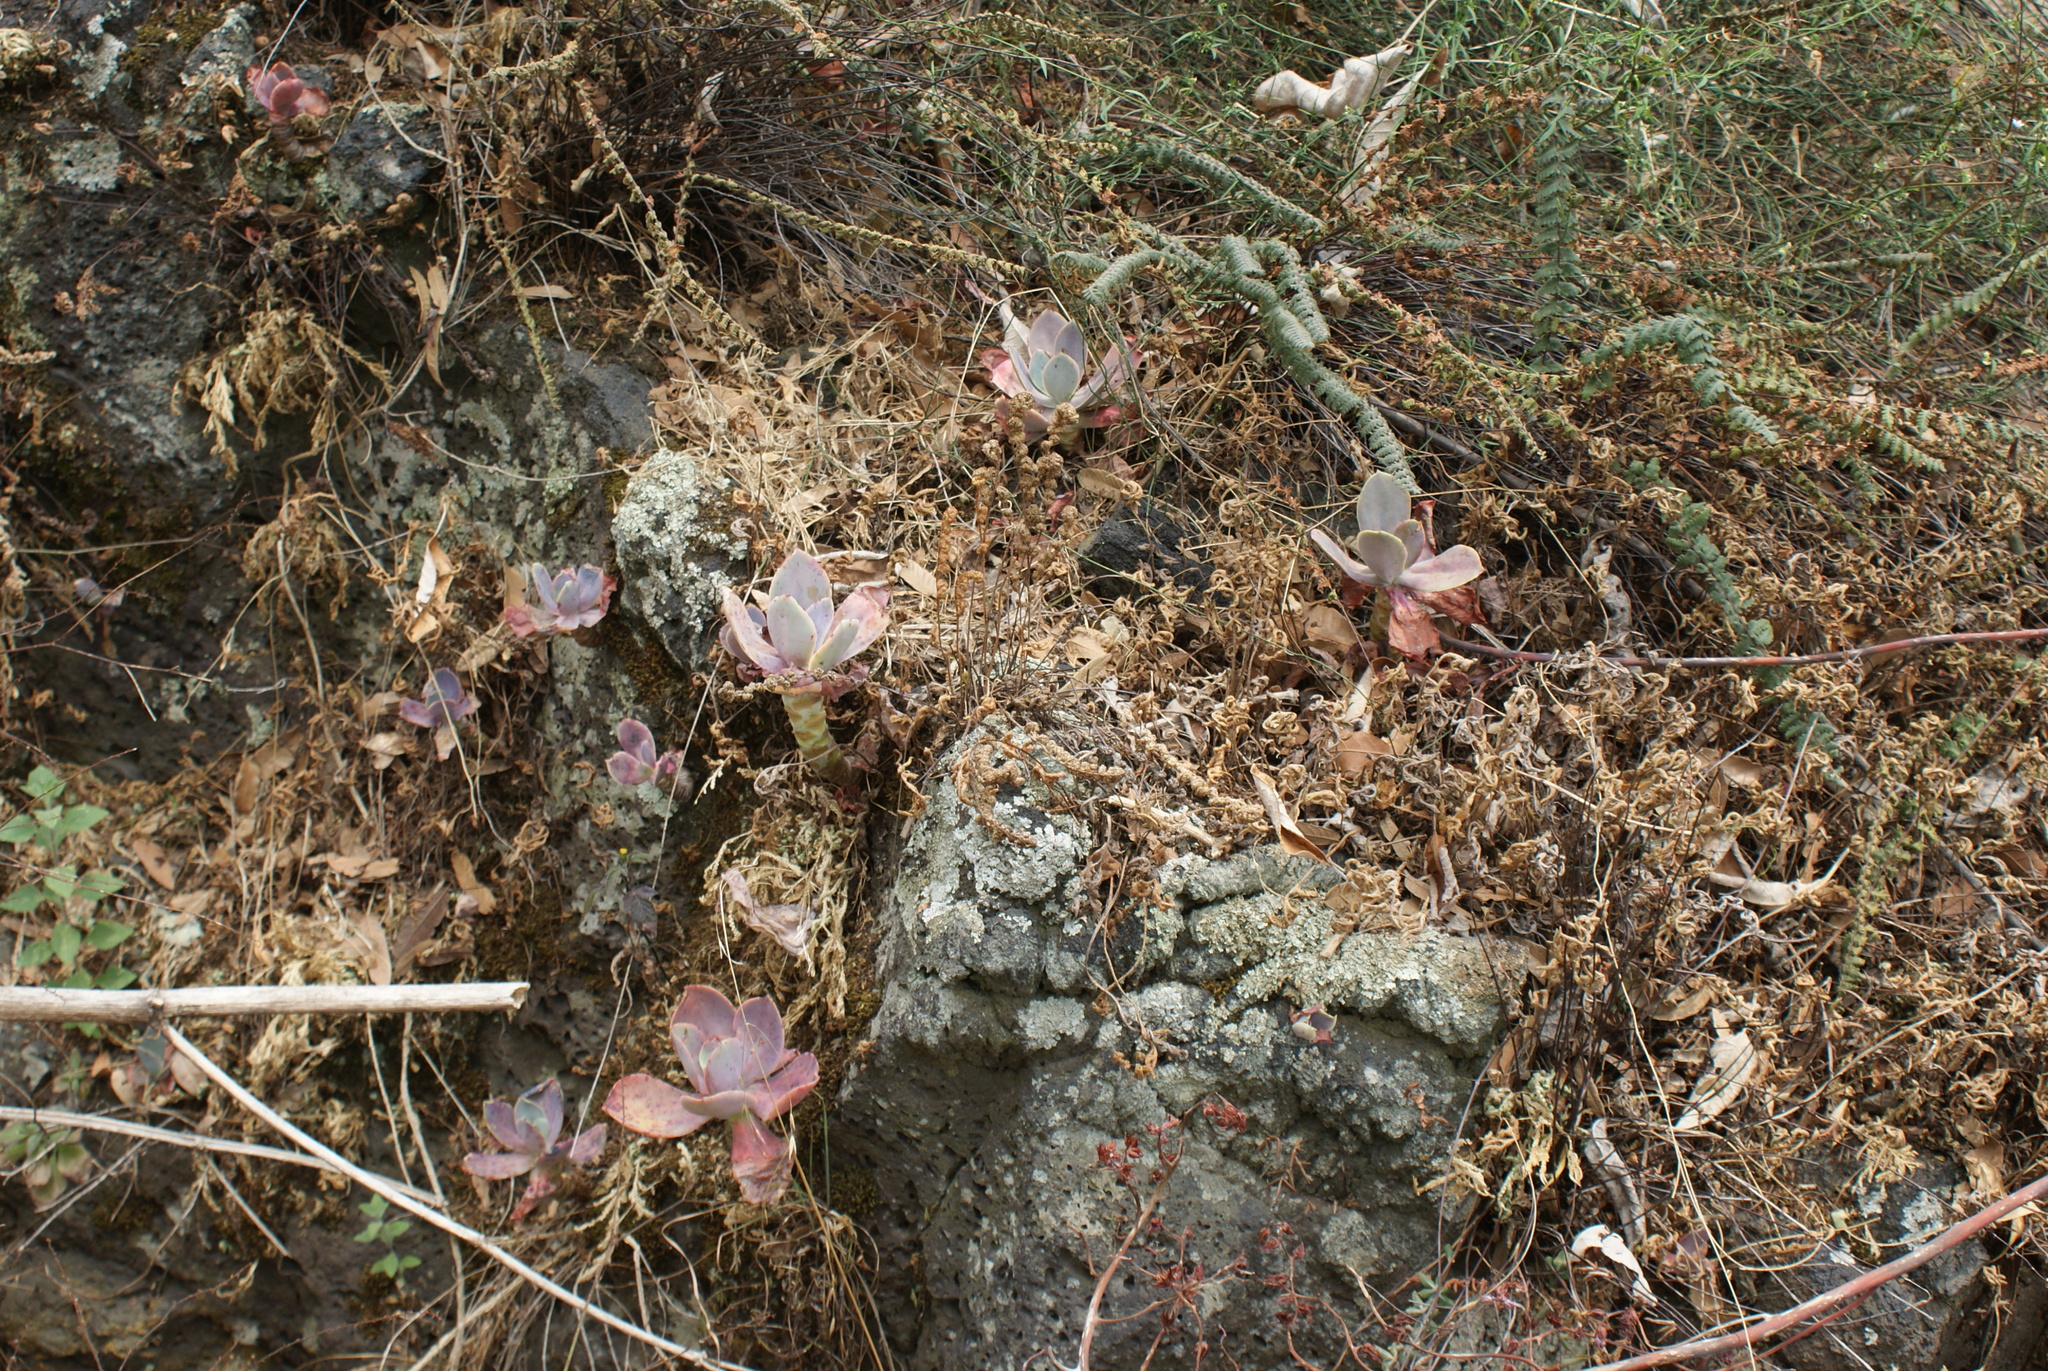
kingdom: Plantae
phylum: Tracheophyta
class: Magnoliopsida
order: Saxifragales
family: Crassulaceae
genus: Echeveria
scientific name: Echeveria gibbiflora
